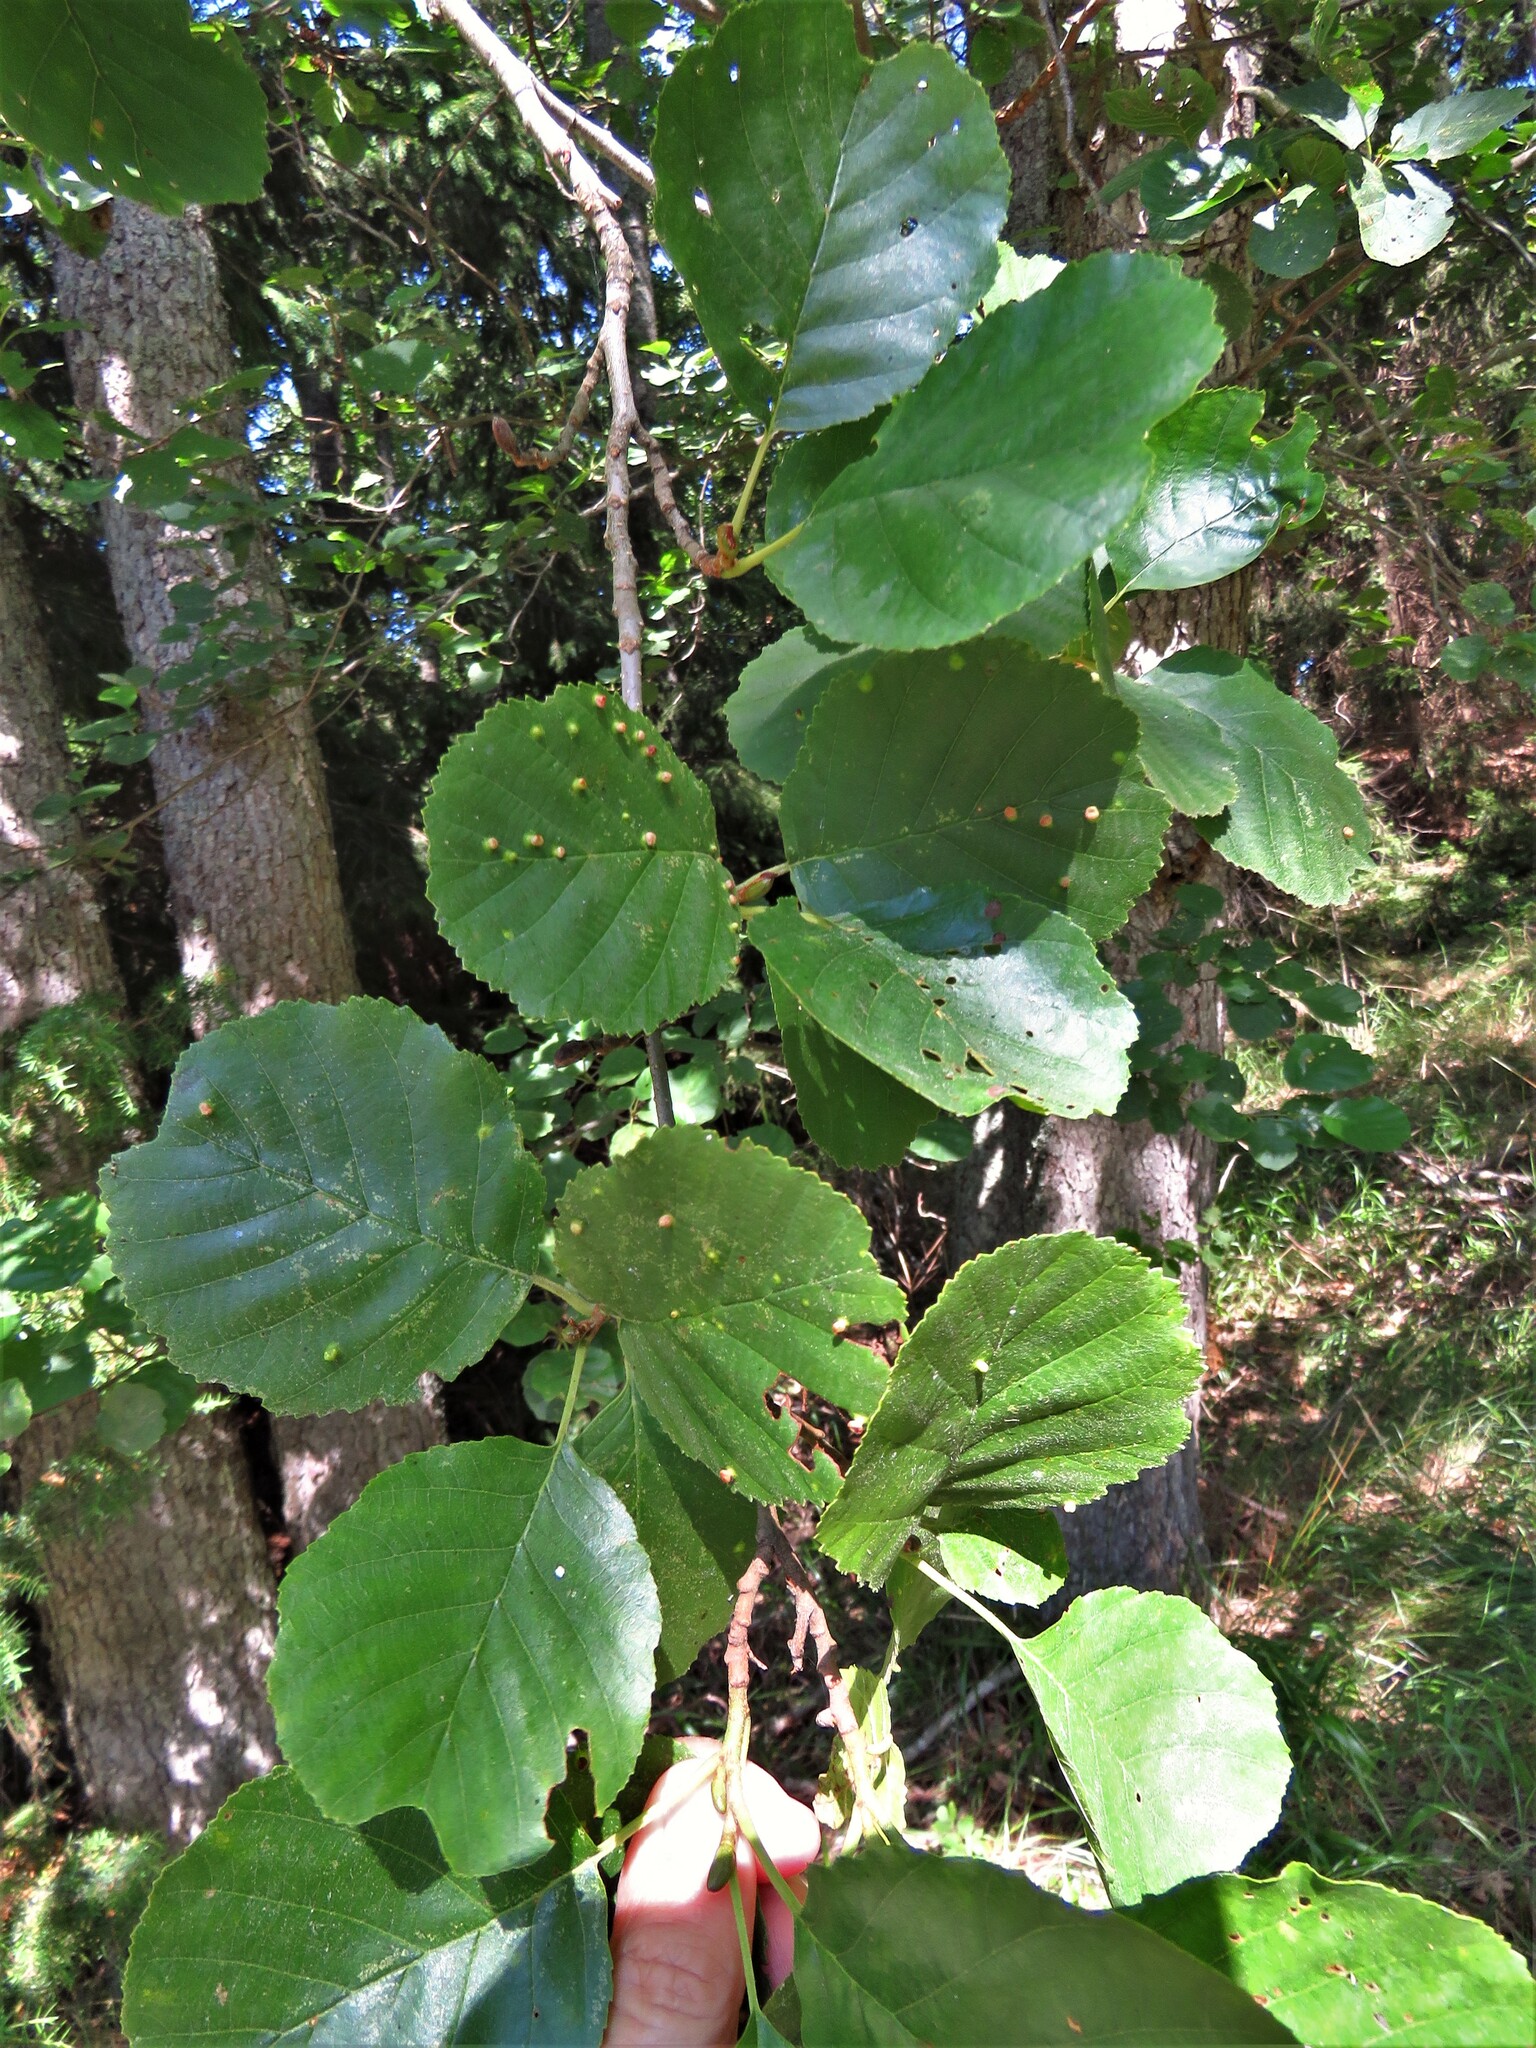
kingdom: Plantae
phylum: Tracheophyta
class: Magnoliopsida
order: Fagales
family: Betulaceae
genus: Alnus
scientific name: Alnus glutinosa
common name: Black alder
